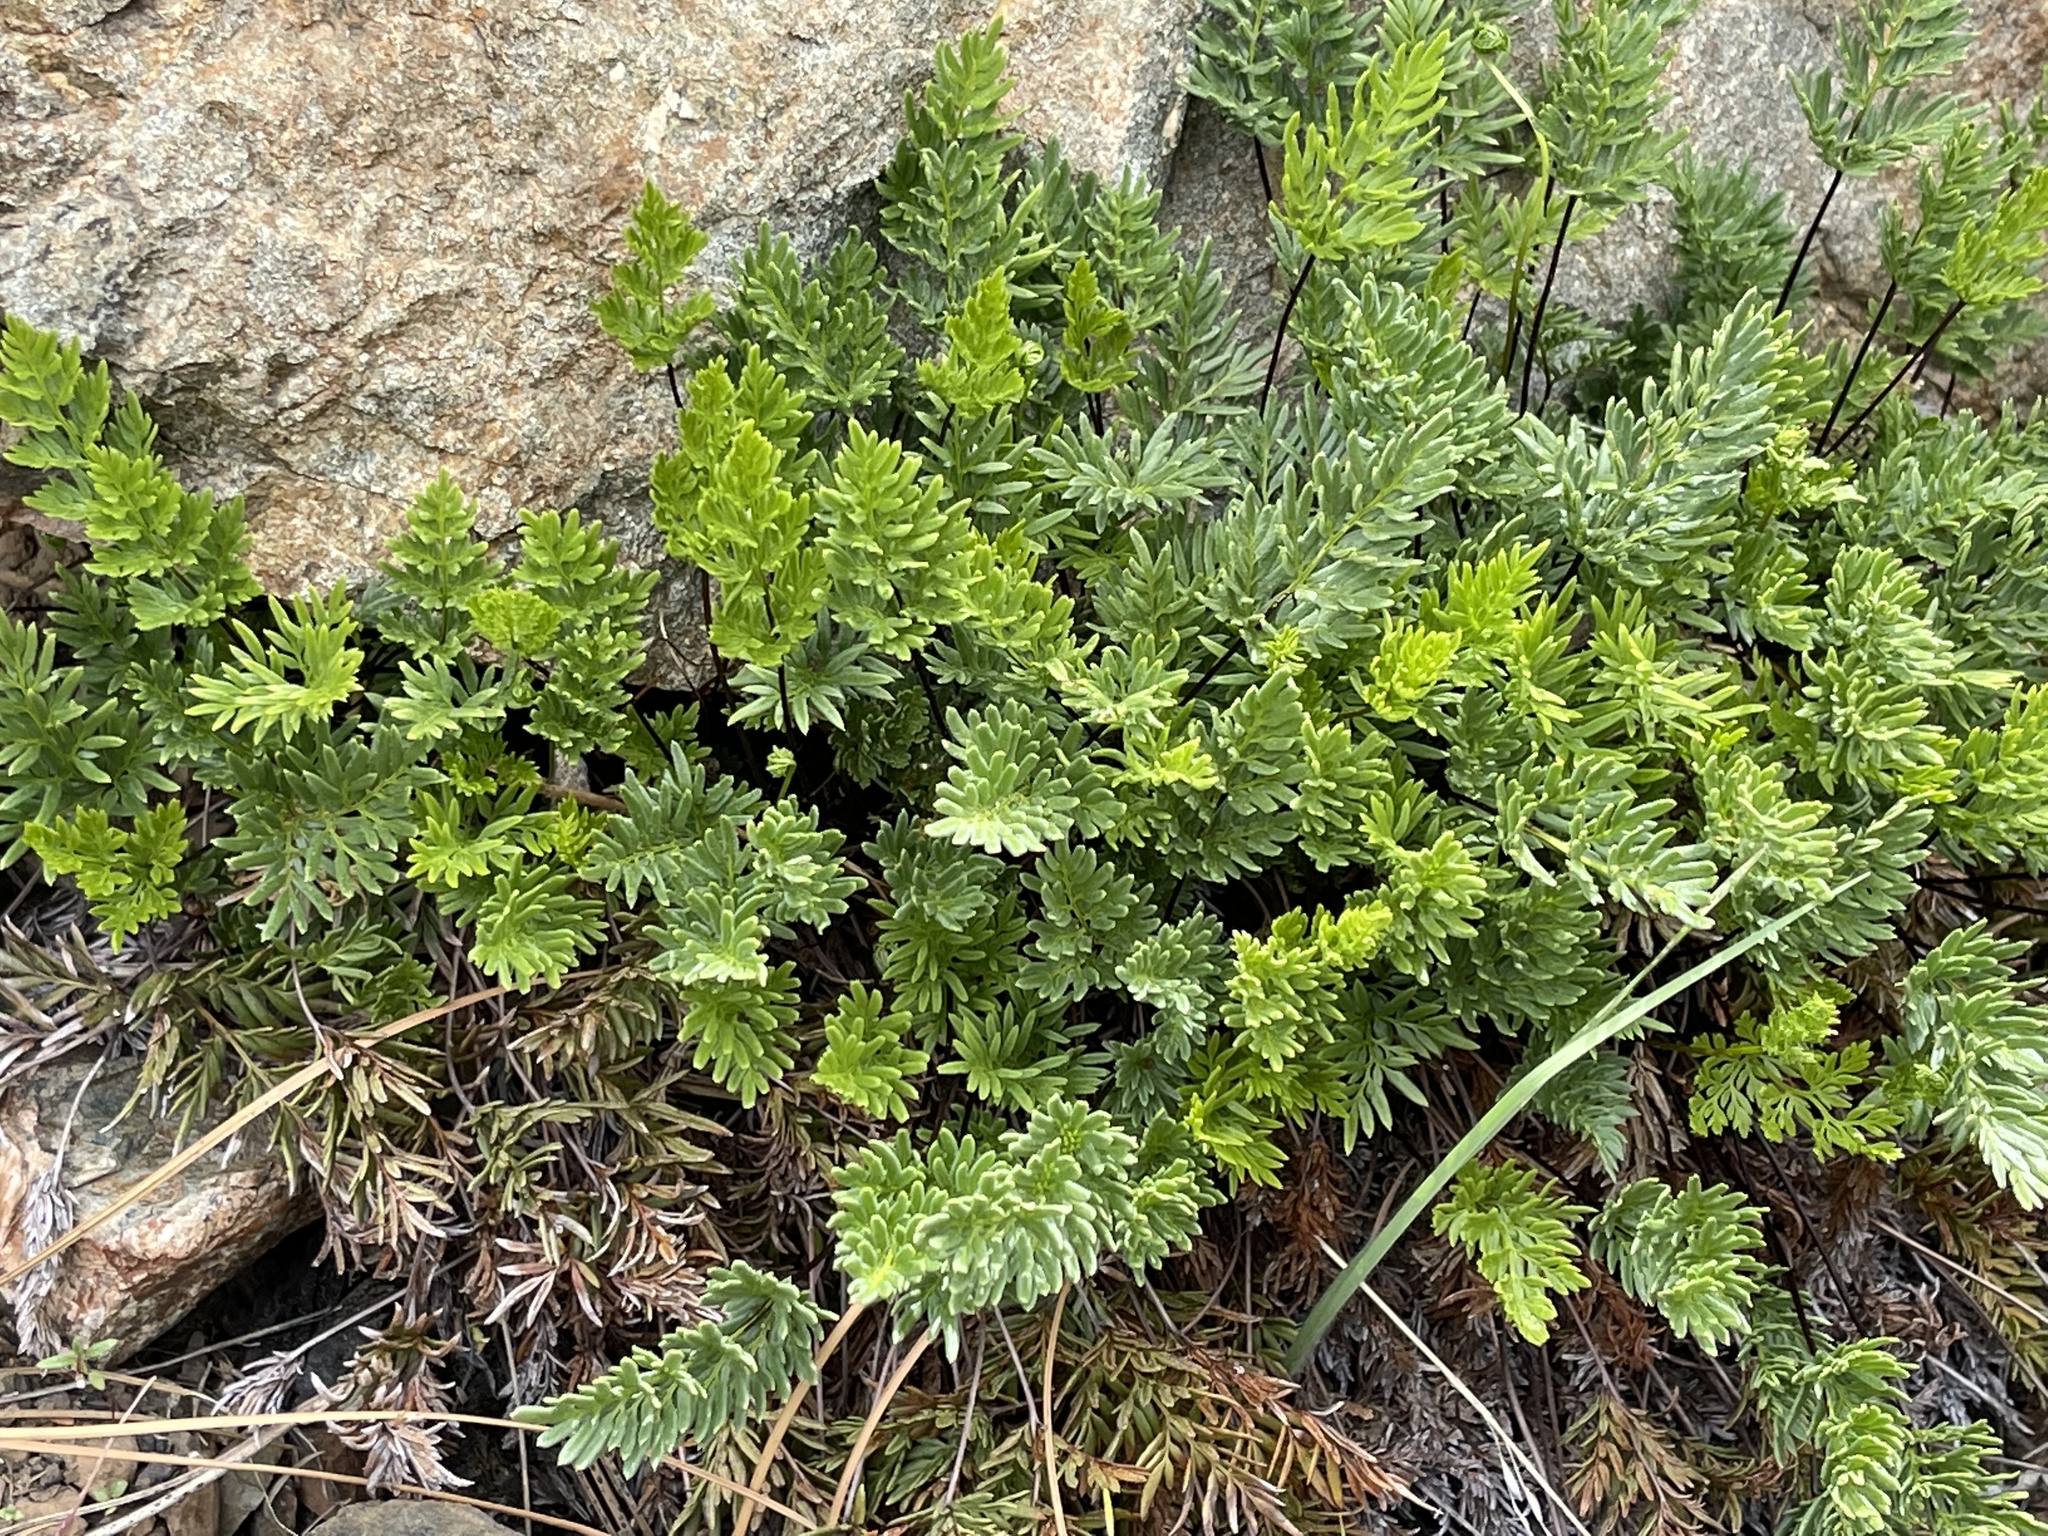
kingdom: Plantae
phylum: Tracheophyta
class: Polypodiopsida
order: Polypodiales
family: Pteridaceae
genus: Aspidotis
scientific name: Aspidotis densa
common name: Indian's dream
